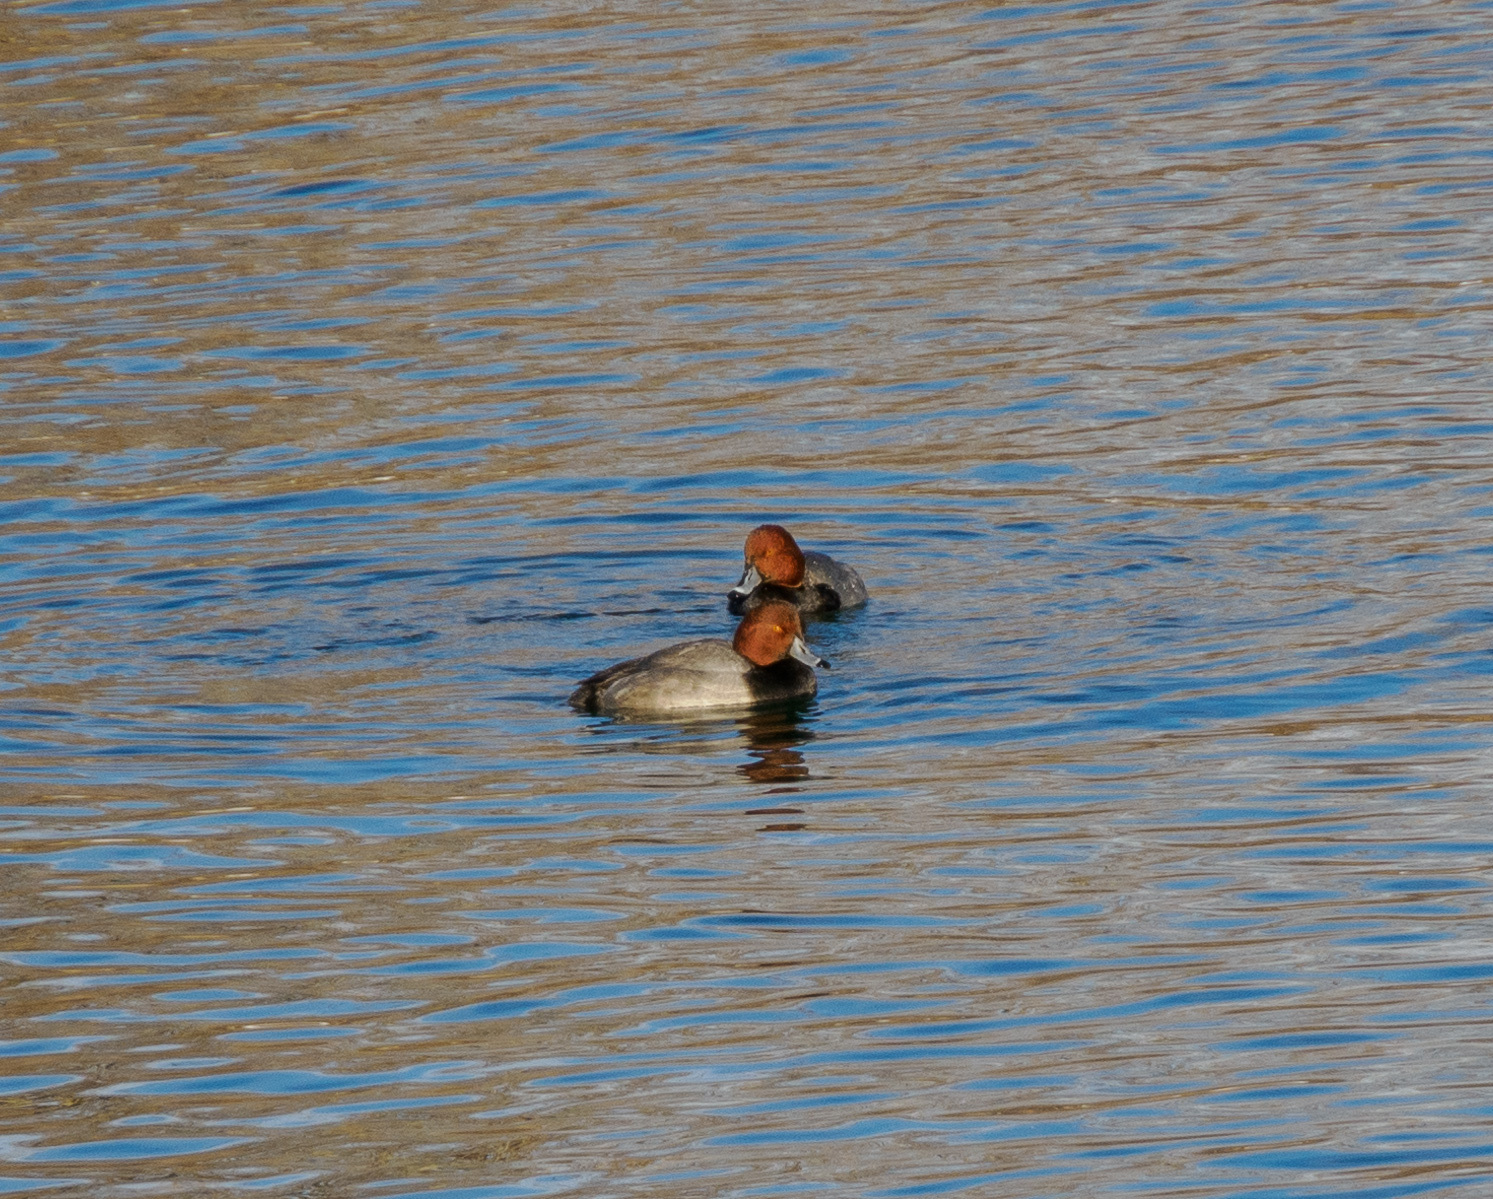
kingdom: Animalia
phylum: Chordata
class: Aves
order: Anseriformes
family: Anatidae
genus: Aythya
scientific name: Aythya americana
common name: Redhead
